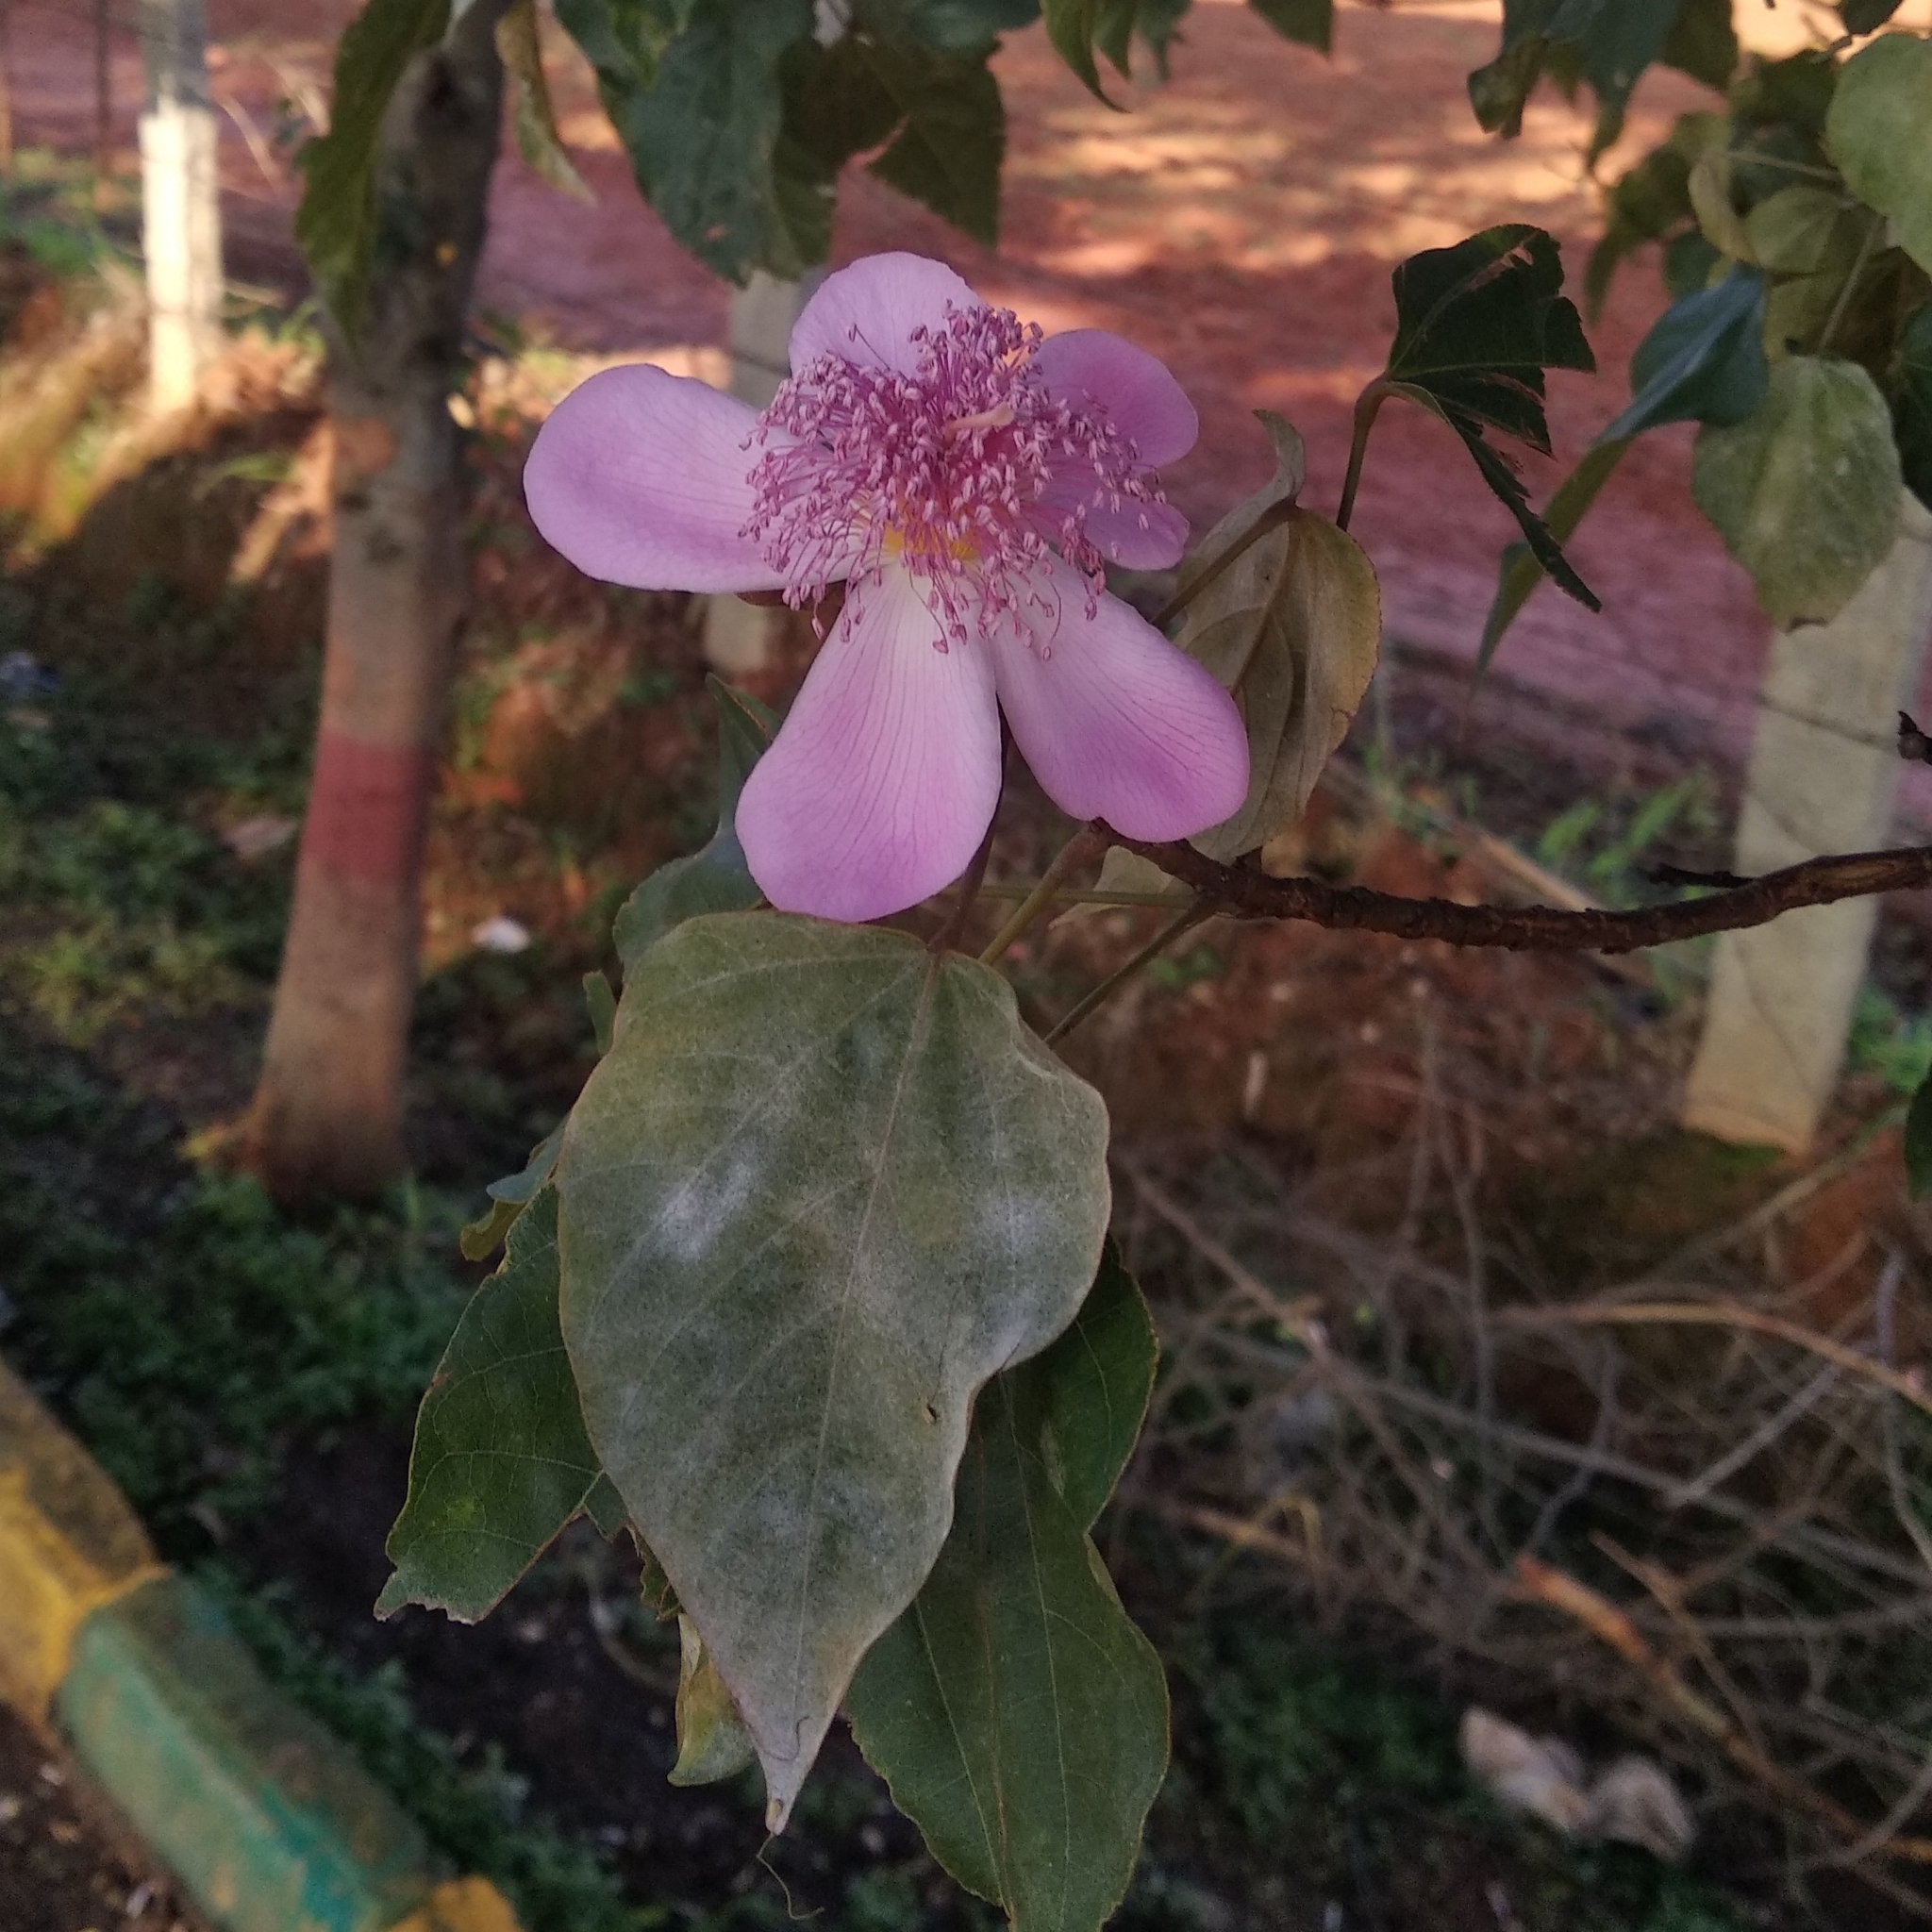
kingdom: Plantae
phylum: Tracheophyta
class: Magnoliopsida
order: Malvales
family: Bixaceae
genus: Bixa
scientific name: Bixa orellana
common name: Lipsticktree
